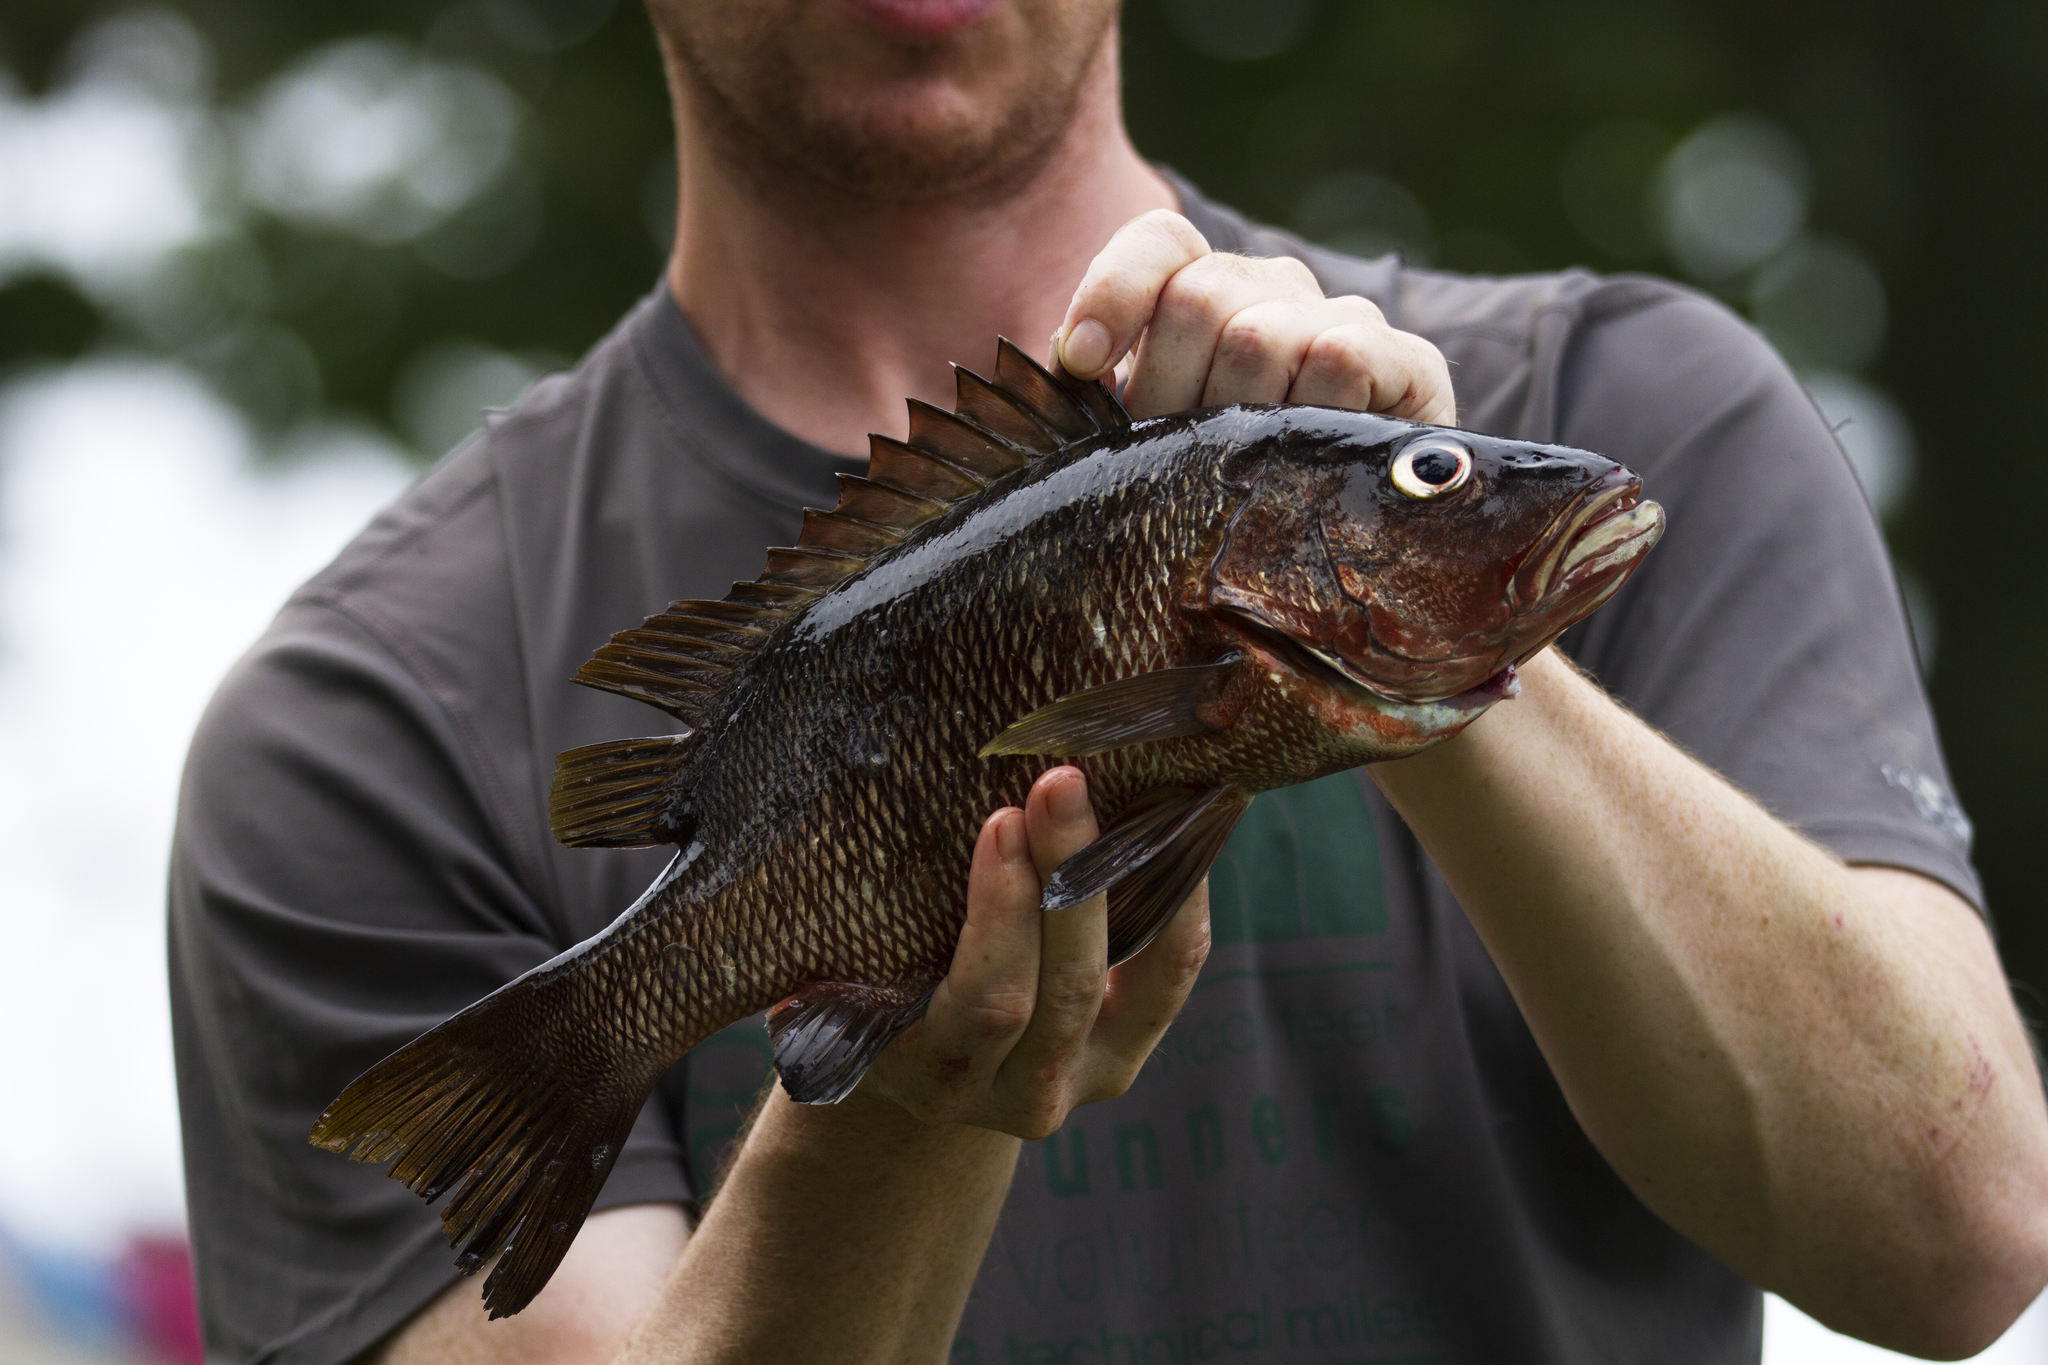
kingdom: Animalia
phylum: Chordata
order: Perciformes
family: Lutjanidae
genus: Lutjanus
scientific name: Lutjanus endecacanthus
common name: Guinea snapper
